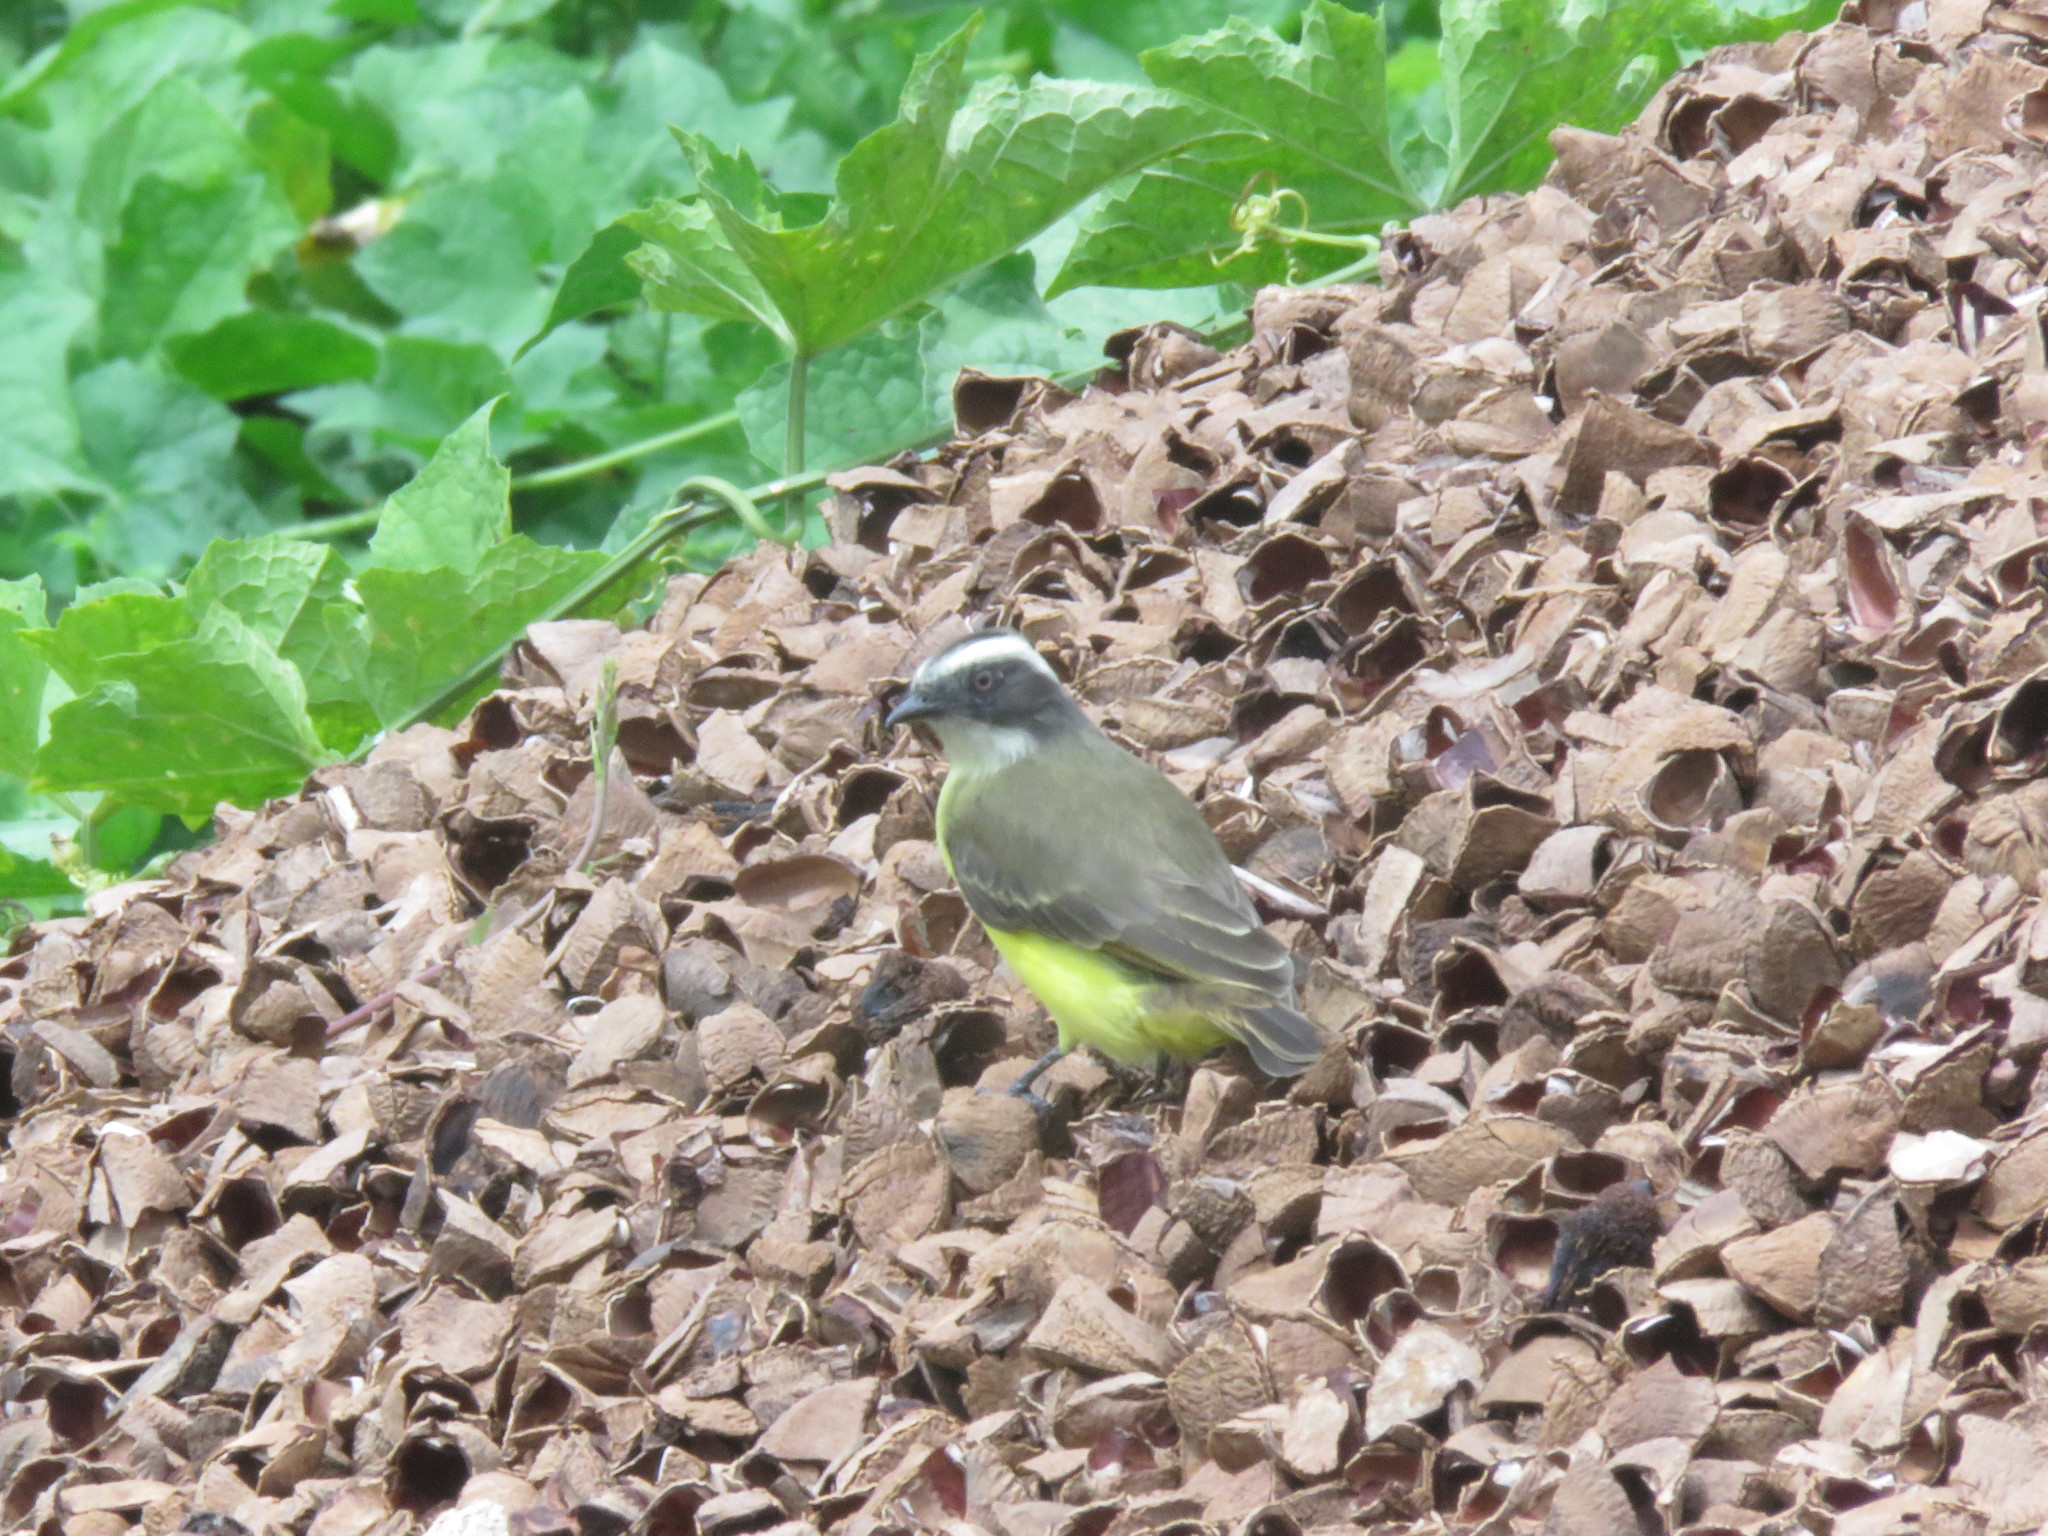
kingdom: Animalia
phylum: Chordata
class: Aves
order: Passeriformes
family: Tyrannidae
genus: Myiozetetes
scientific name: Myiozetetes similis
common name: Social flycatcher
